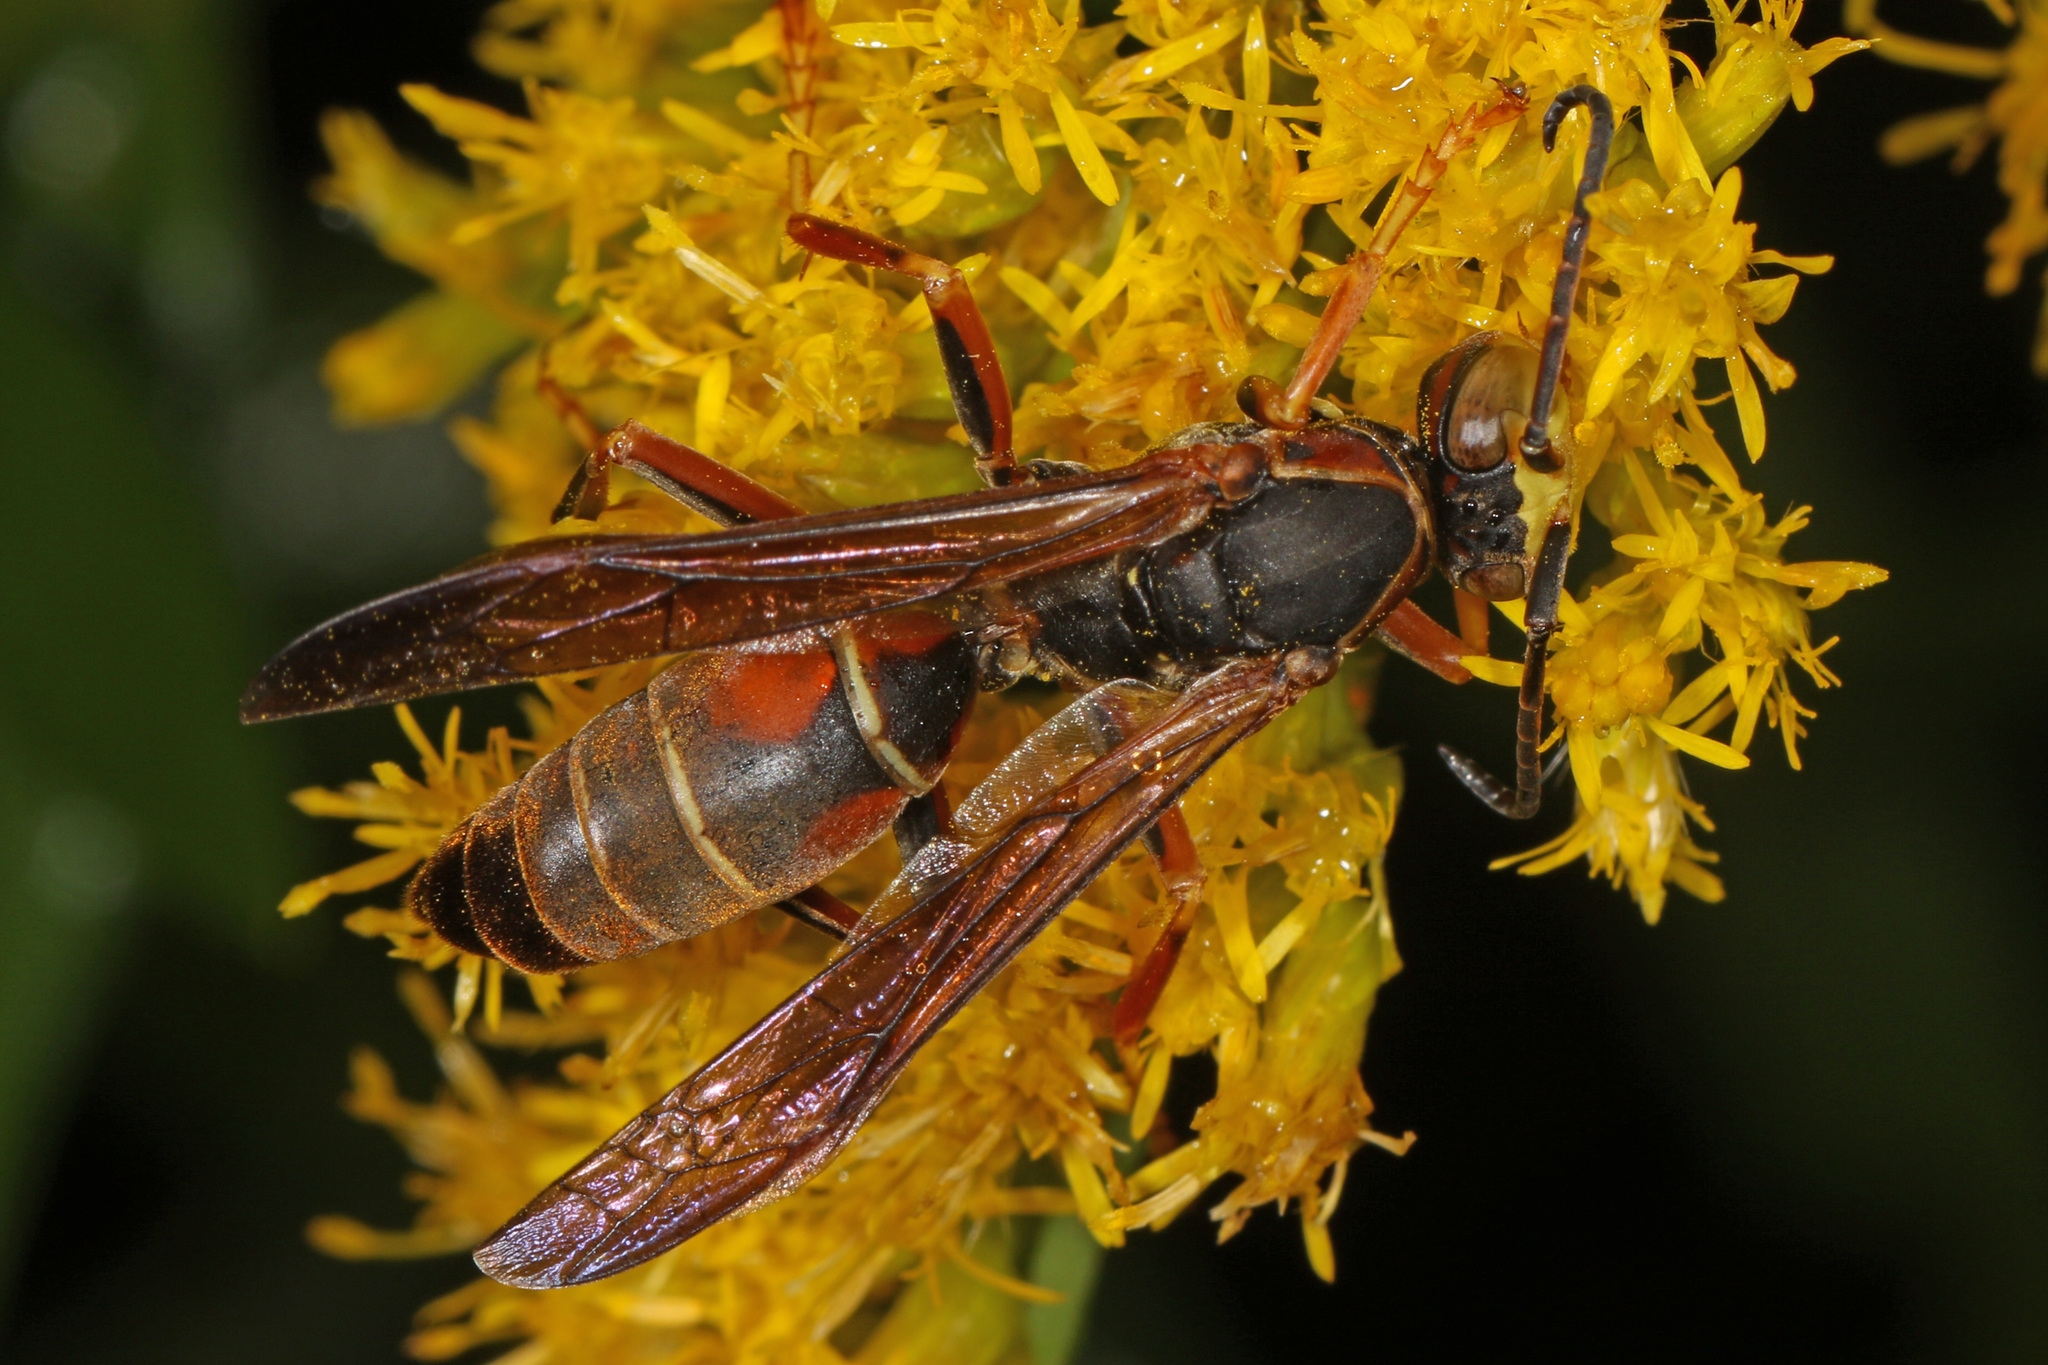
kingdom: Animalia
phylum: Arthropoda
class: Insecta
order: Hymenoptera
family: Eumenidae
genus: Polistes
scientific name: Polistes fuscatus
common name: Dark paper wasp
